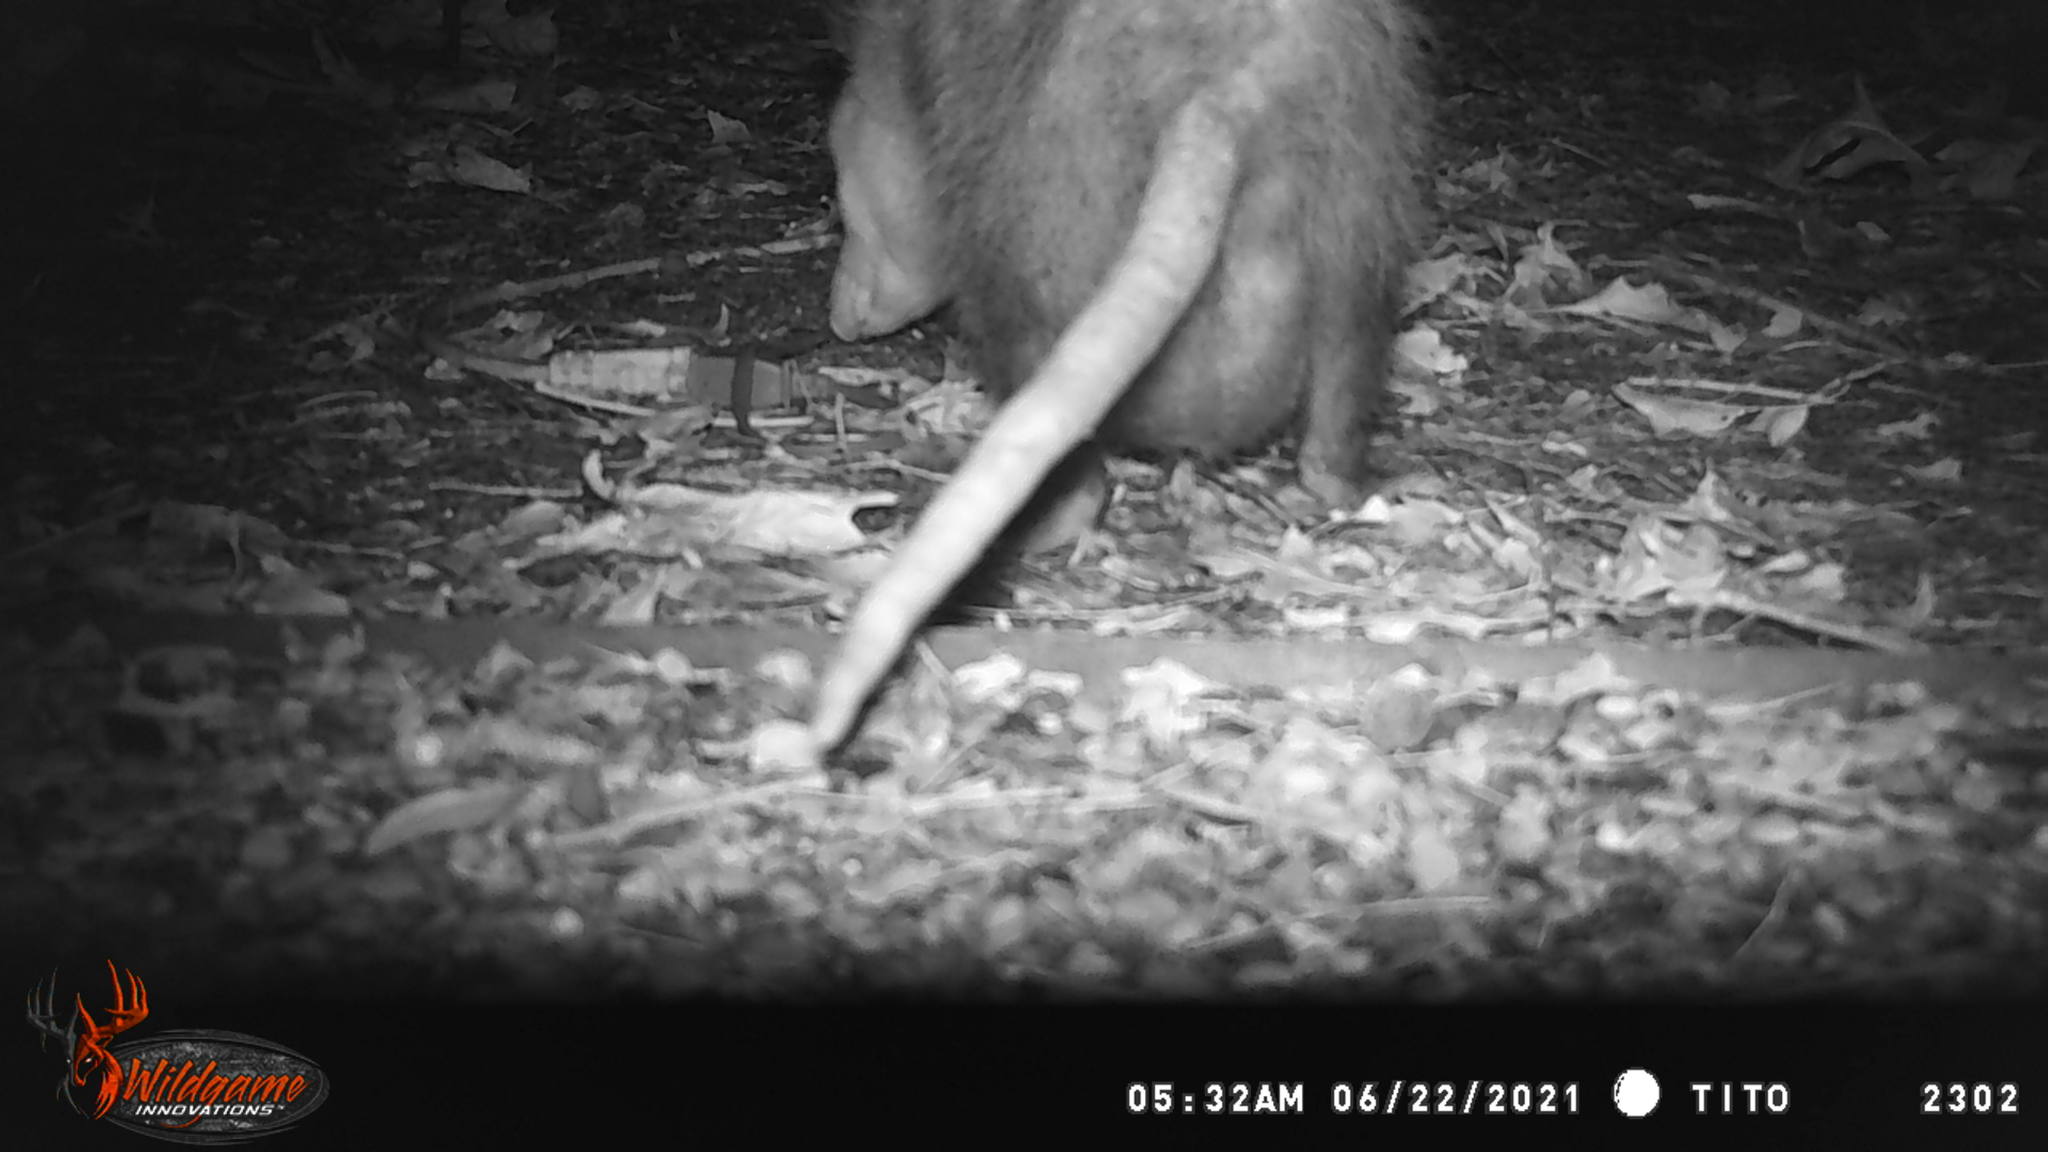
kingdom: Animalia
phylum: Chordata
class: Mammalia
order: Didelphimorphia
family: Didelphidae
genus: Didelphis
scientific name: Didelphis virginiana
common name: Virginia opossum
